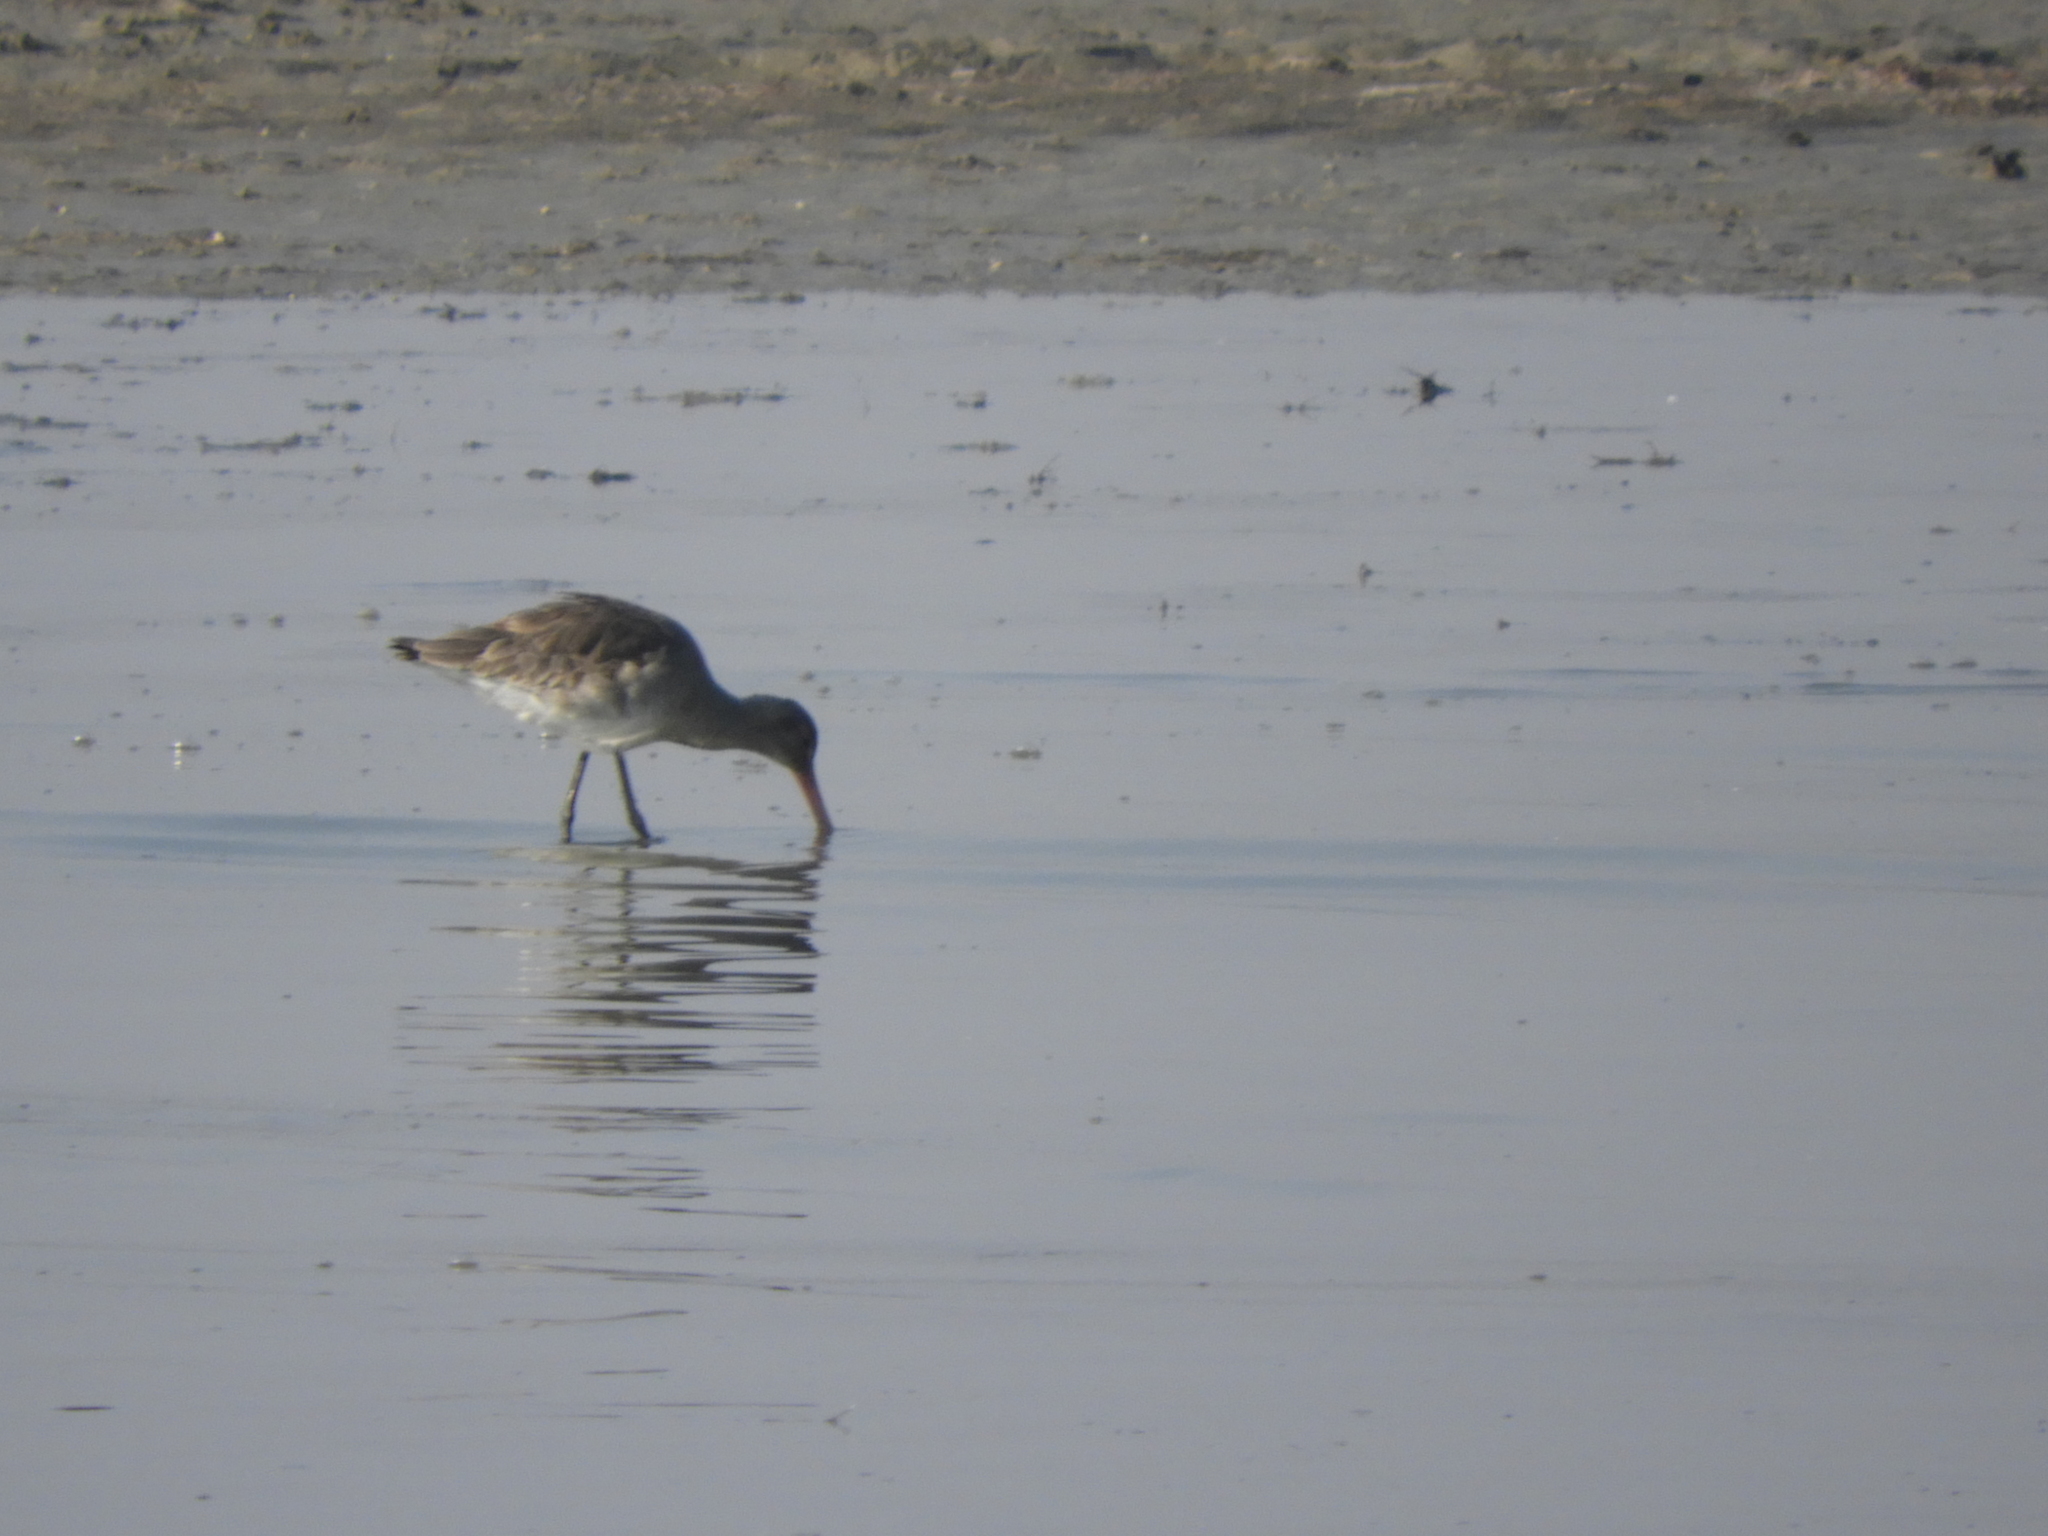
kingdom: Animalia
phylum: Chordata
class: Aves
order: Charadriiformes
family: Scolopacidae
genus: Limosa
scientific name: Limosa limosa
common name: Black-tailed godwit
